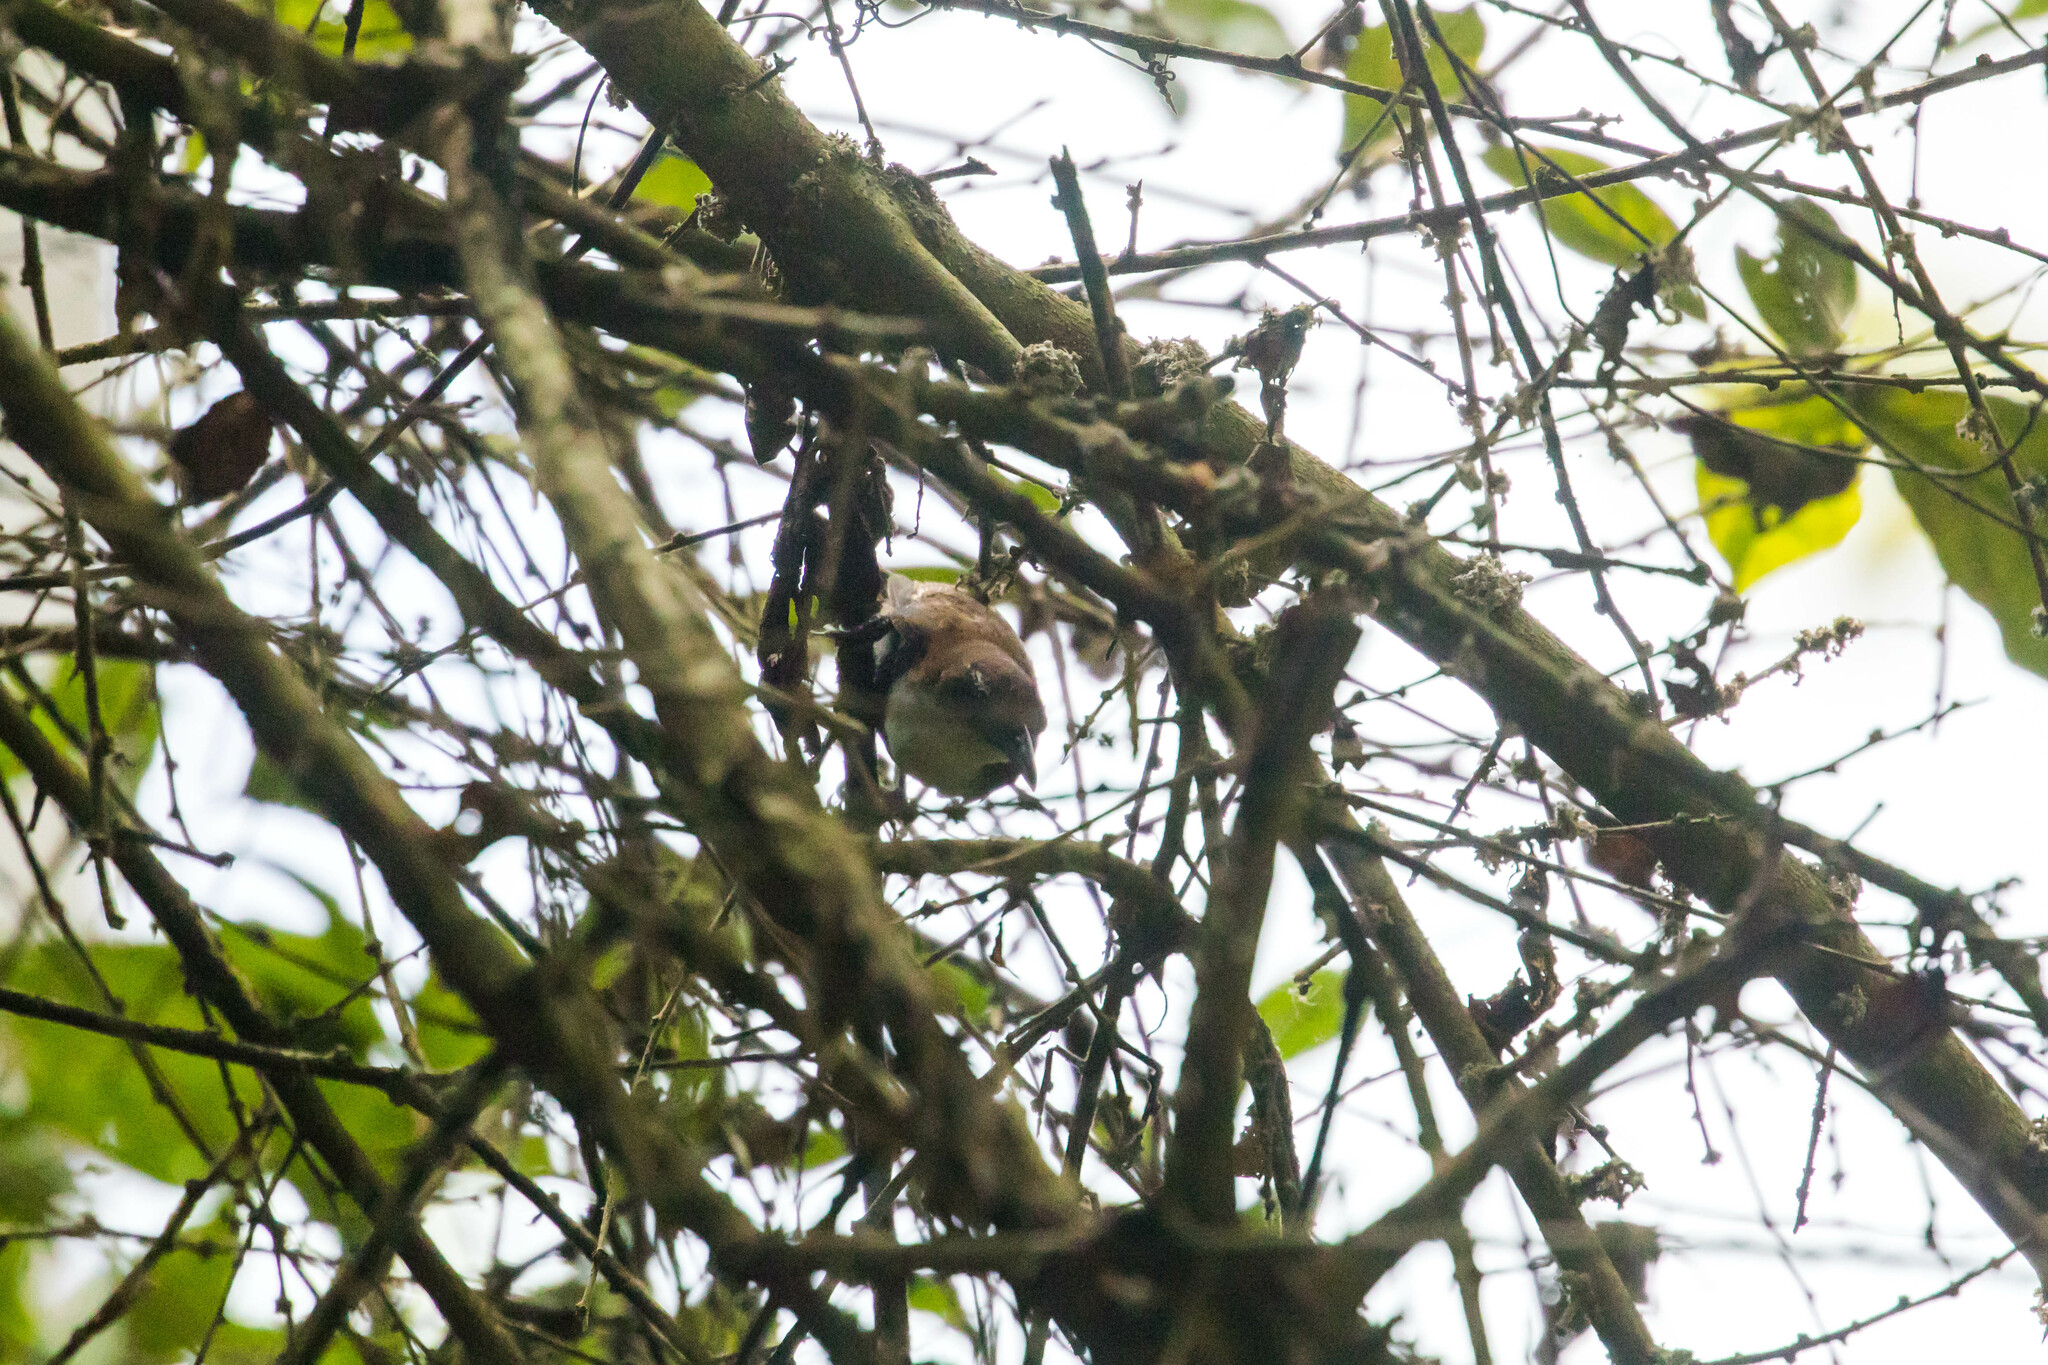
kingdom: Animalia
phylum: Chordata
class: Aves
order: Passeriformes
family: Troglodytidae
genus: Pheugopedius
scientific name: Pheugopedius fasciatoventris
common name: Black-bellied wren
